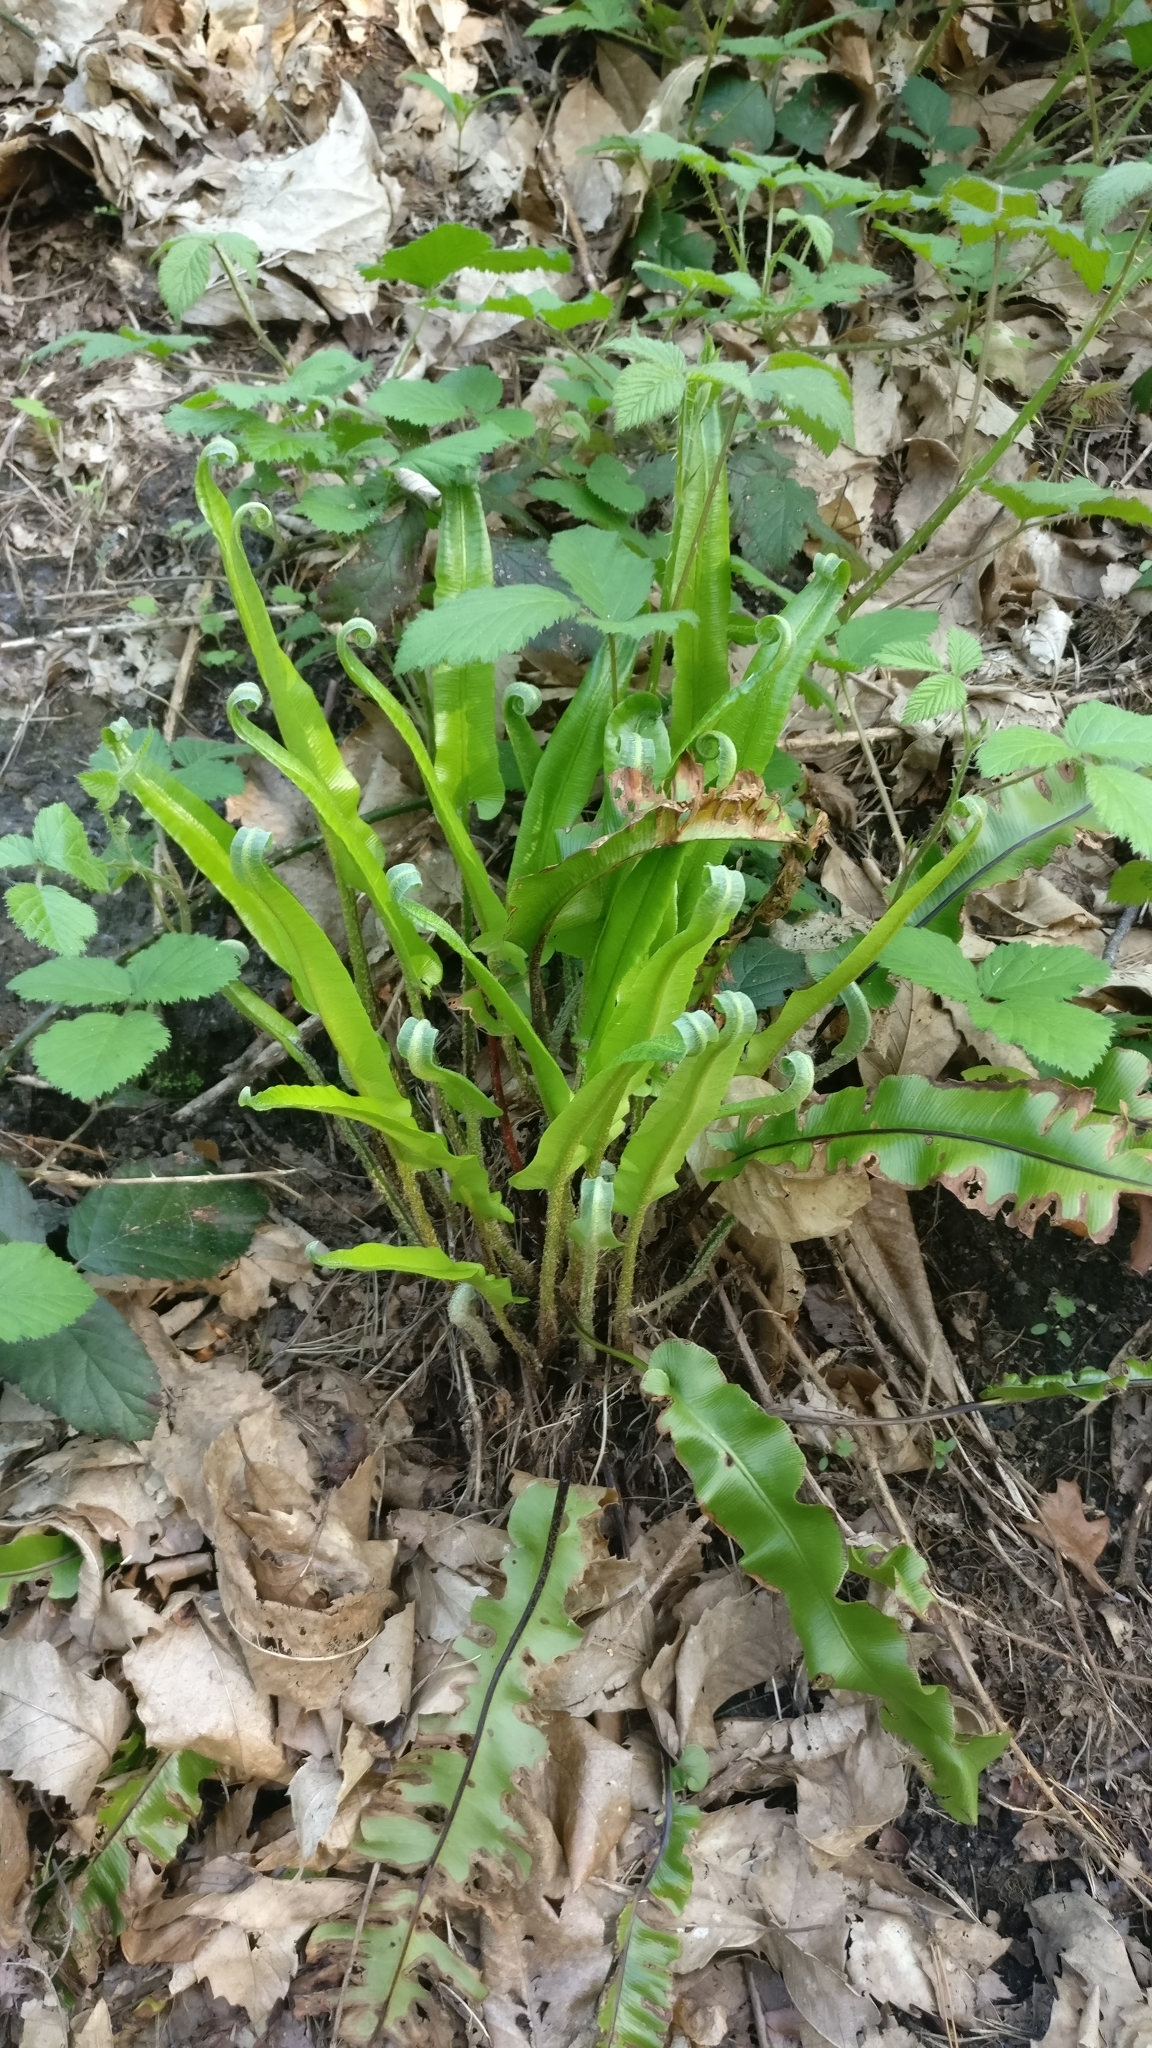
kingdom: Plantae
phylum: Tracheophyta
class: Polypodiopsida
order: Polypodiales
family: Aspleniaceae
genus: Asplenium
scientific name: Asplenium scolopendrium
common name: Hart's-tongue fern
